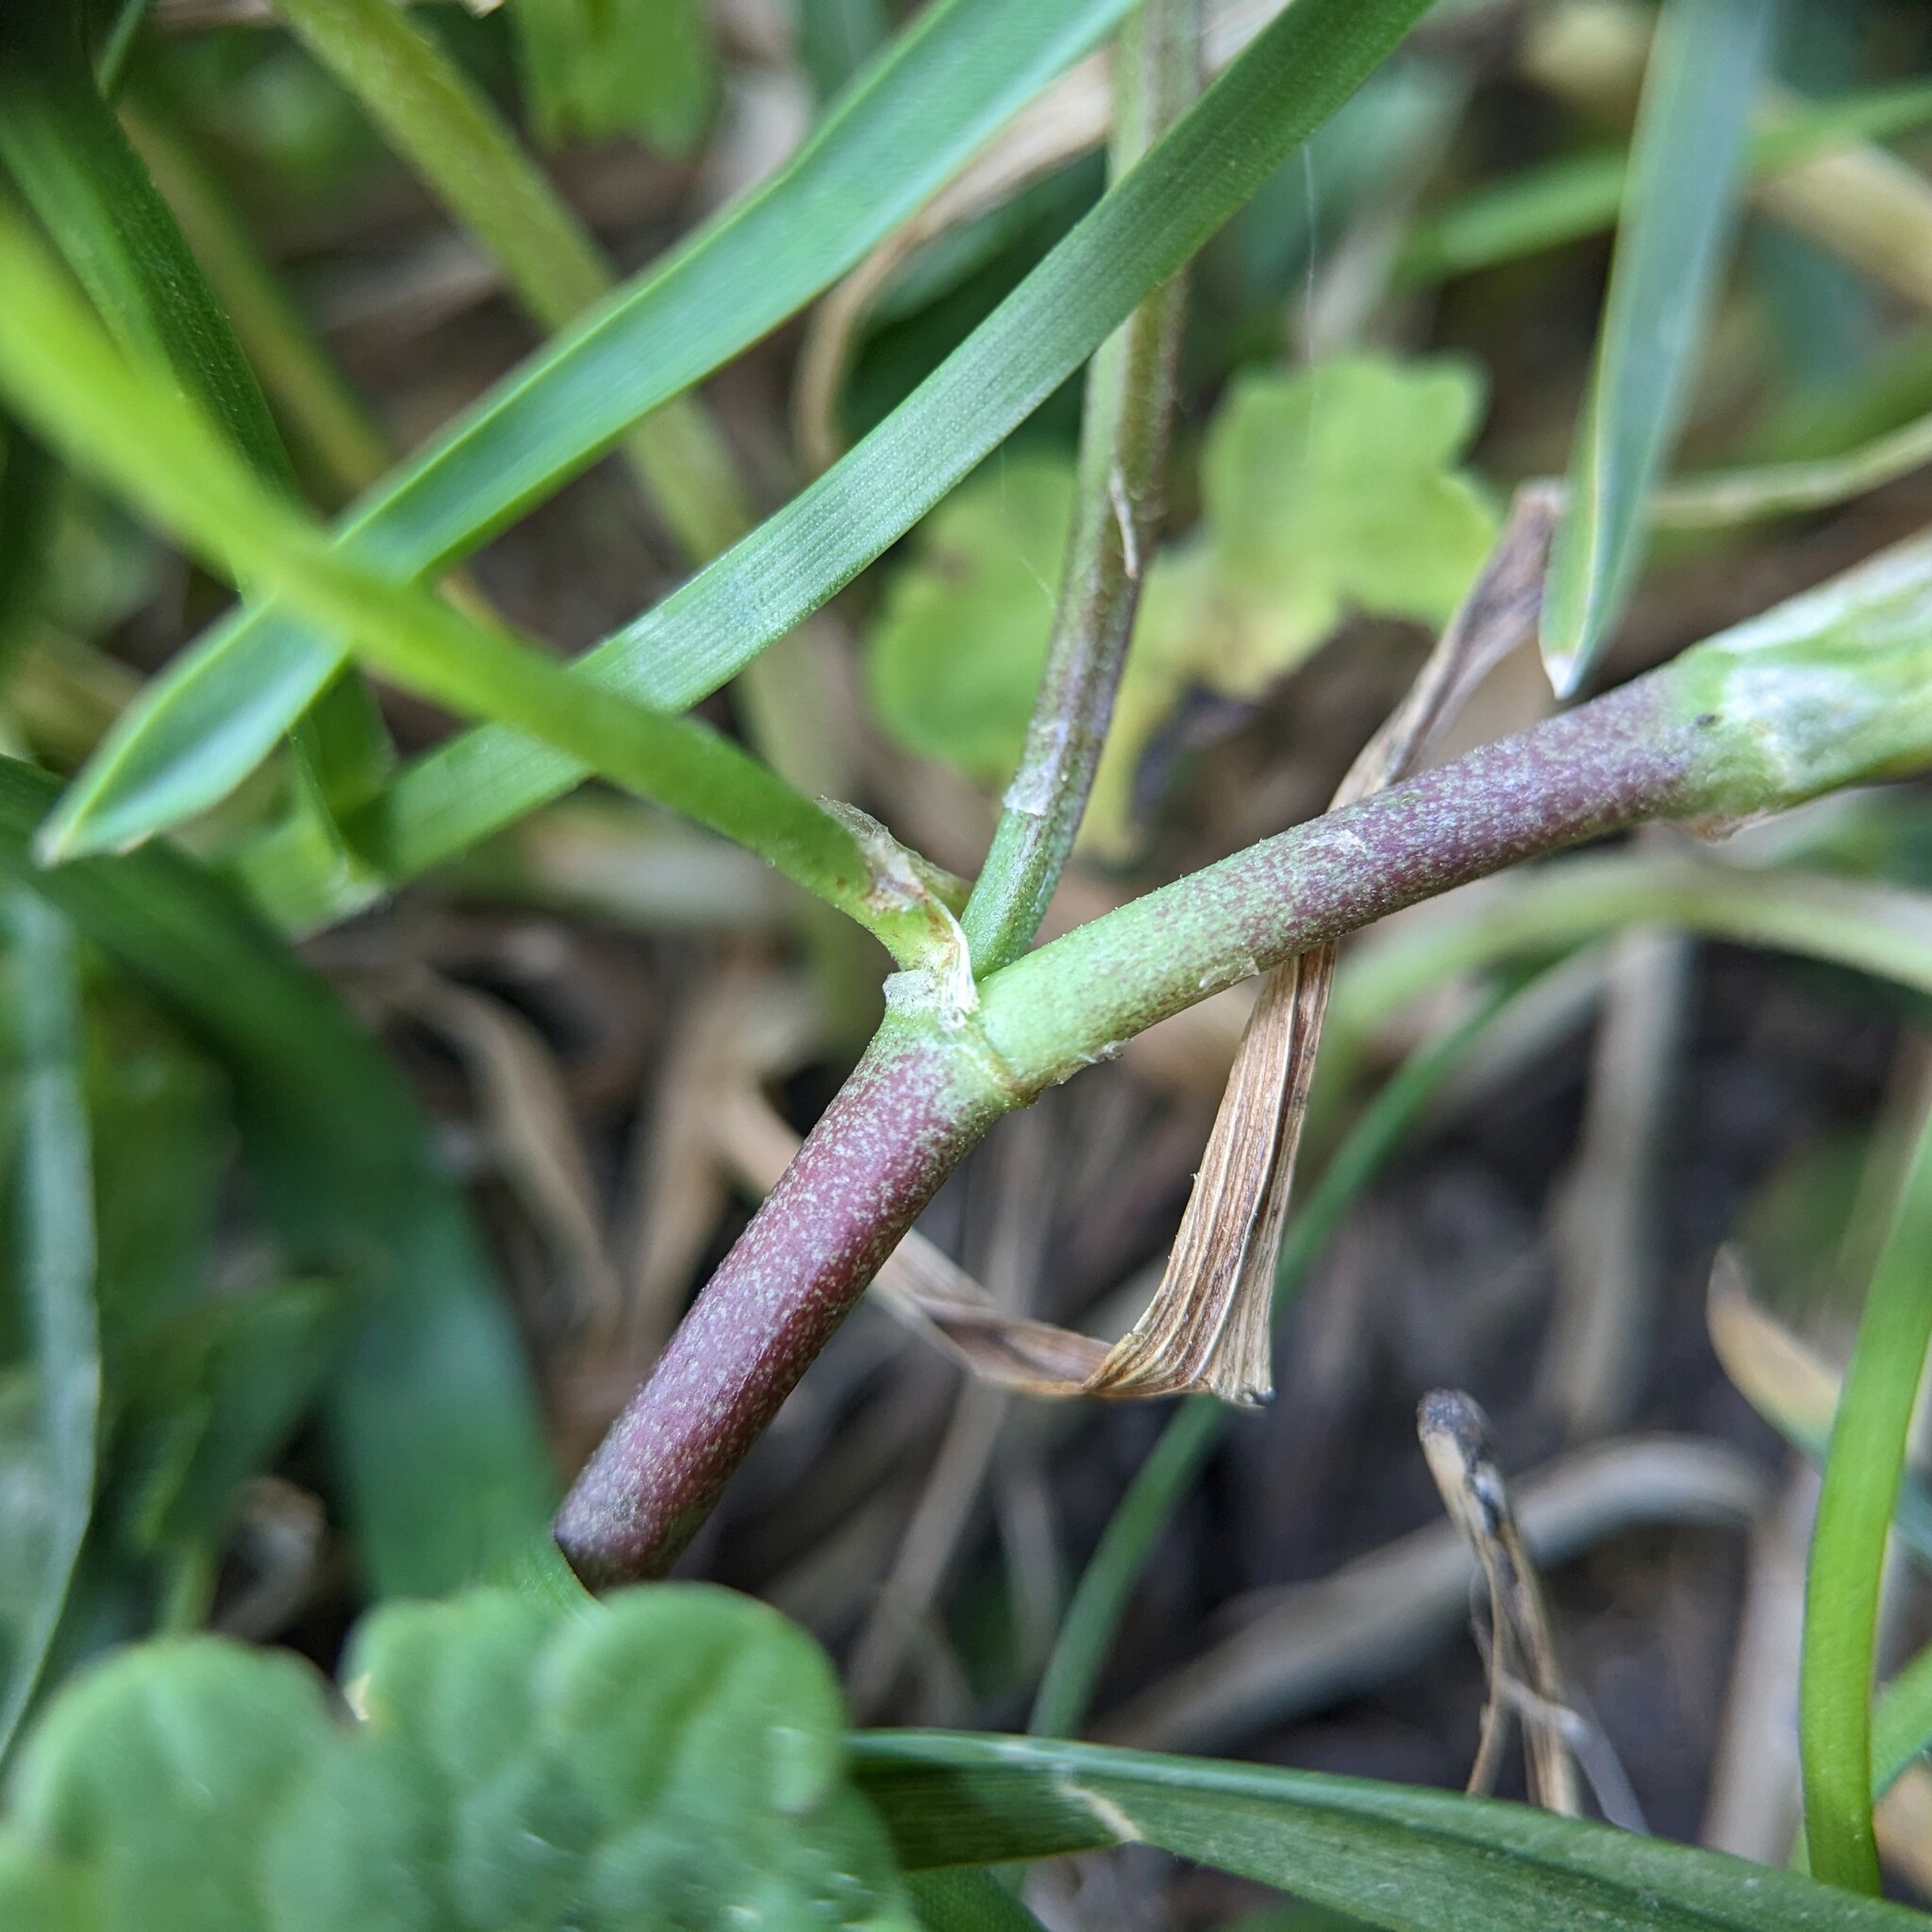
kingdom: Plantae
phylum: Tracheophyta
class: Magnoliopsida
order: Fabales
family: Fabaceae
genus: Trifolium
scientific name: Trifolium repens
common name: White clover
